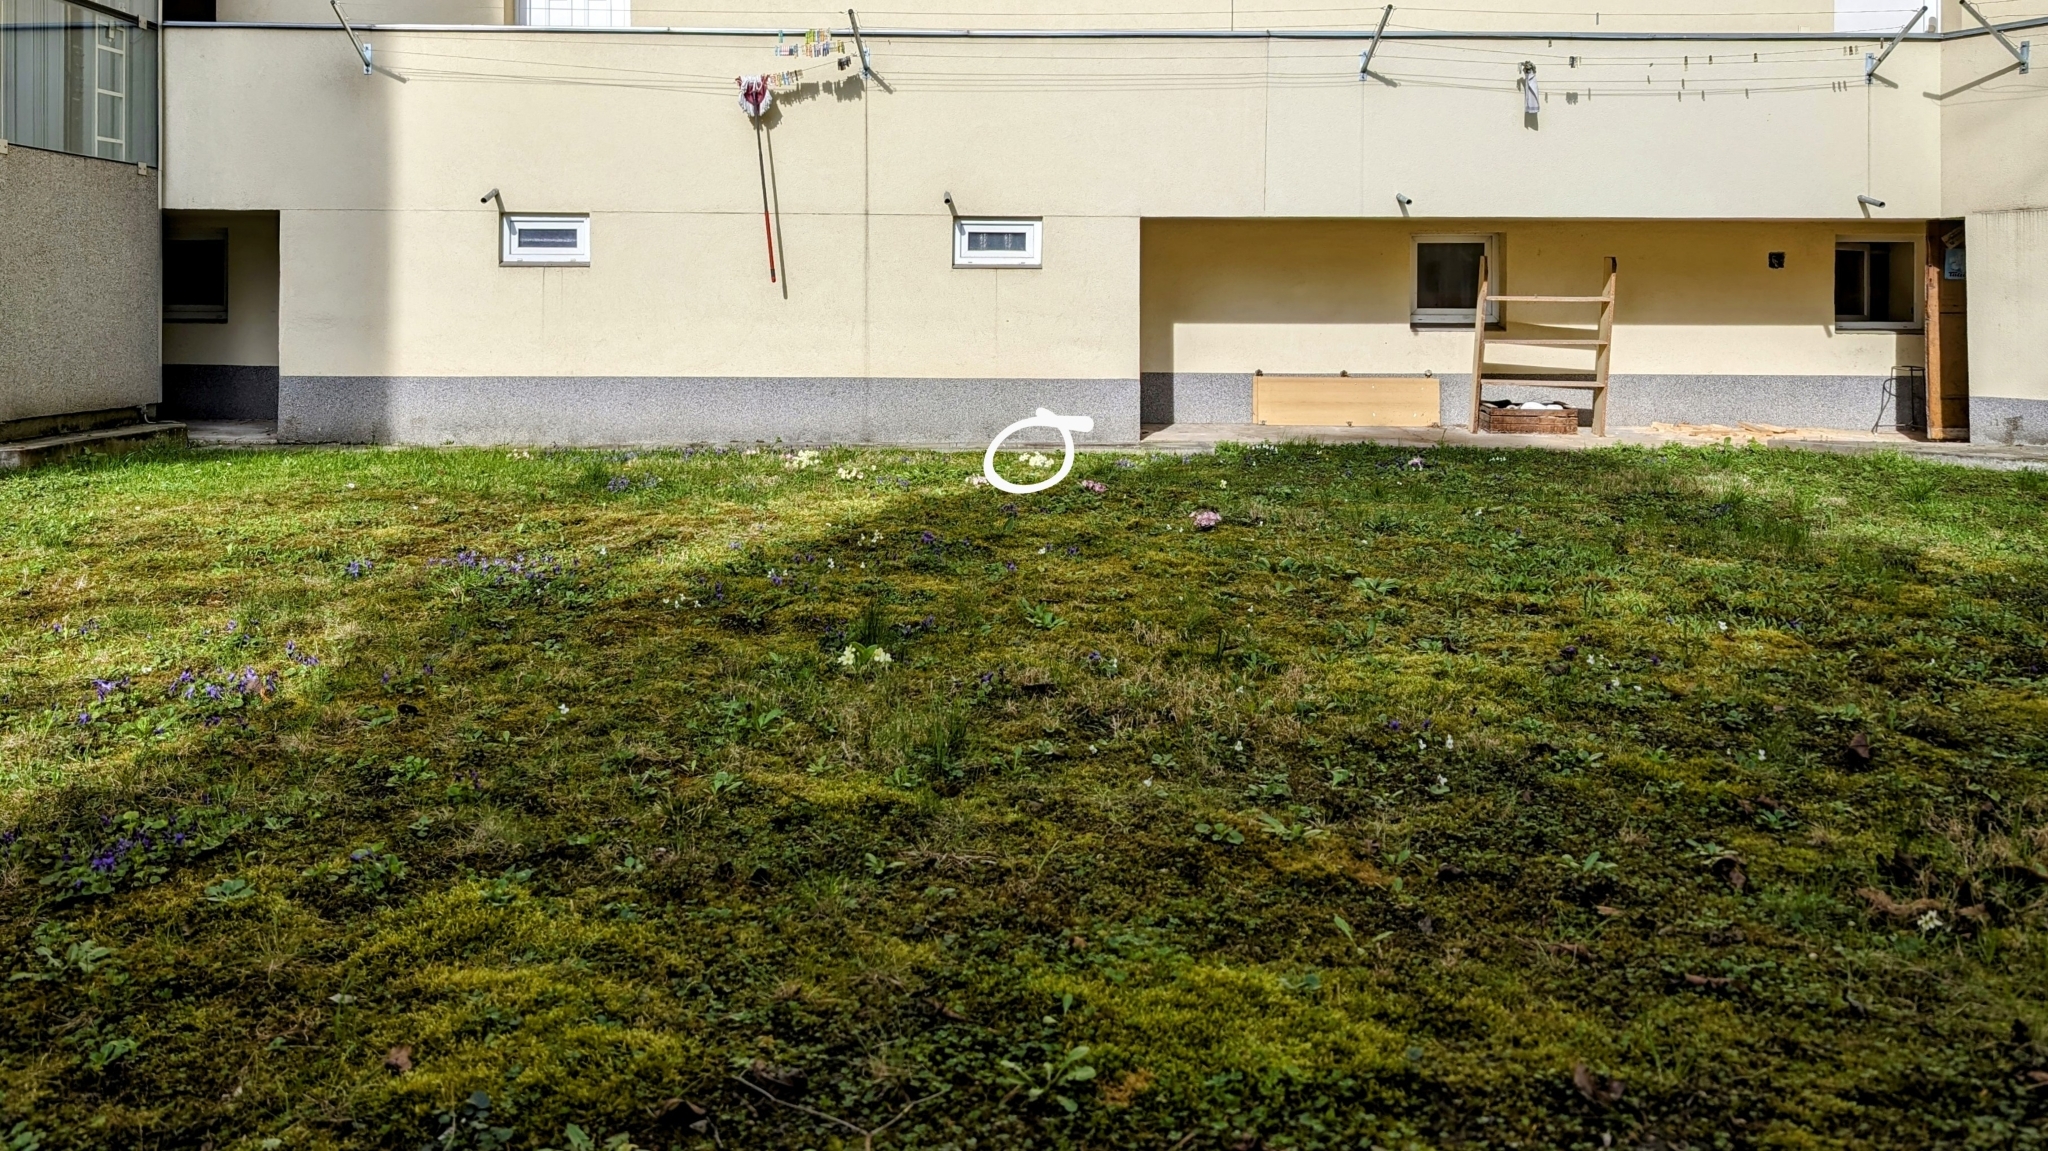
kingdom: Plantae
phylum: Tracheophyta
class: Magnoliopsida
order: Ericales
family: Primulaceae
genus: Primula
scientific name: Primula vulgaris
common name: Primrose
